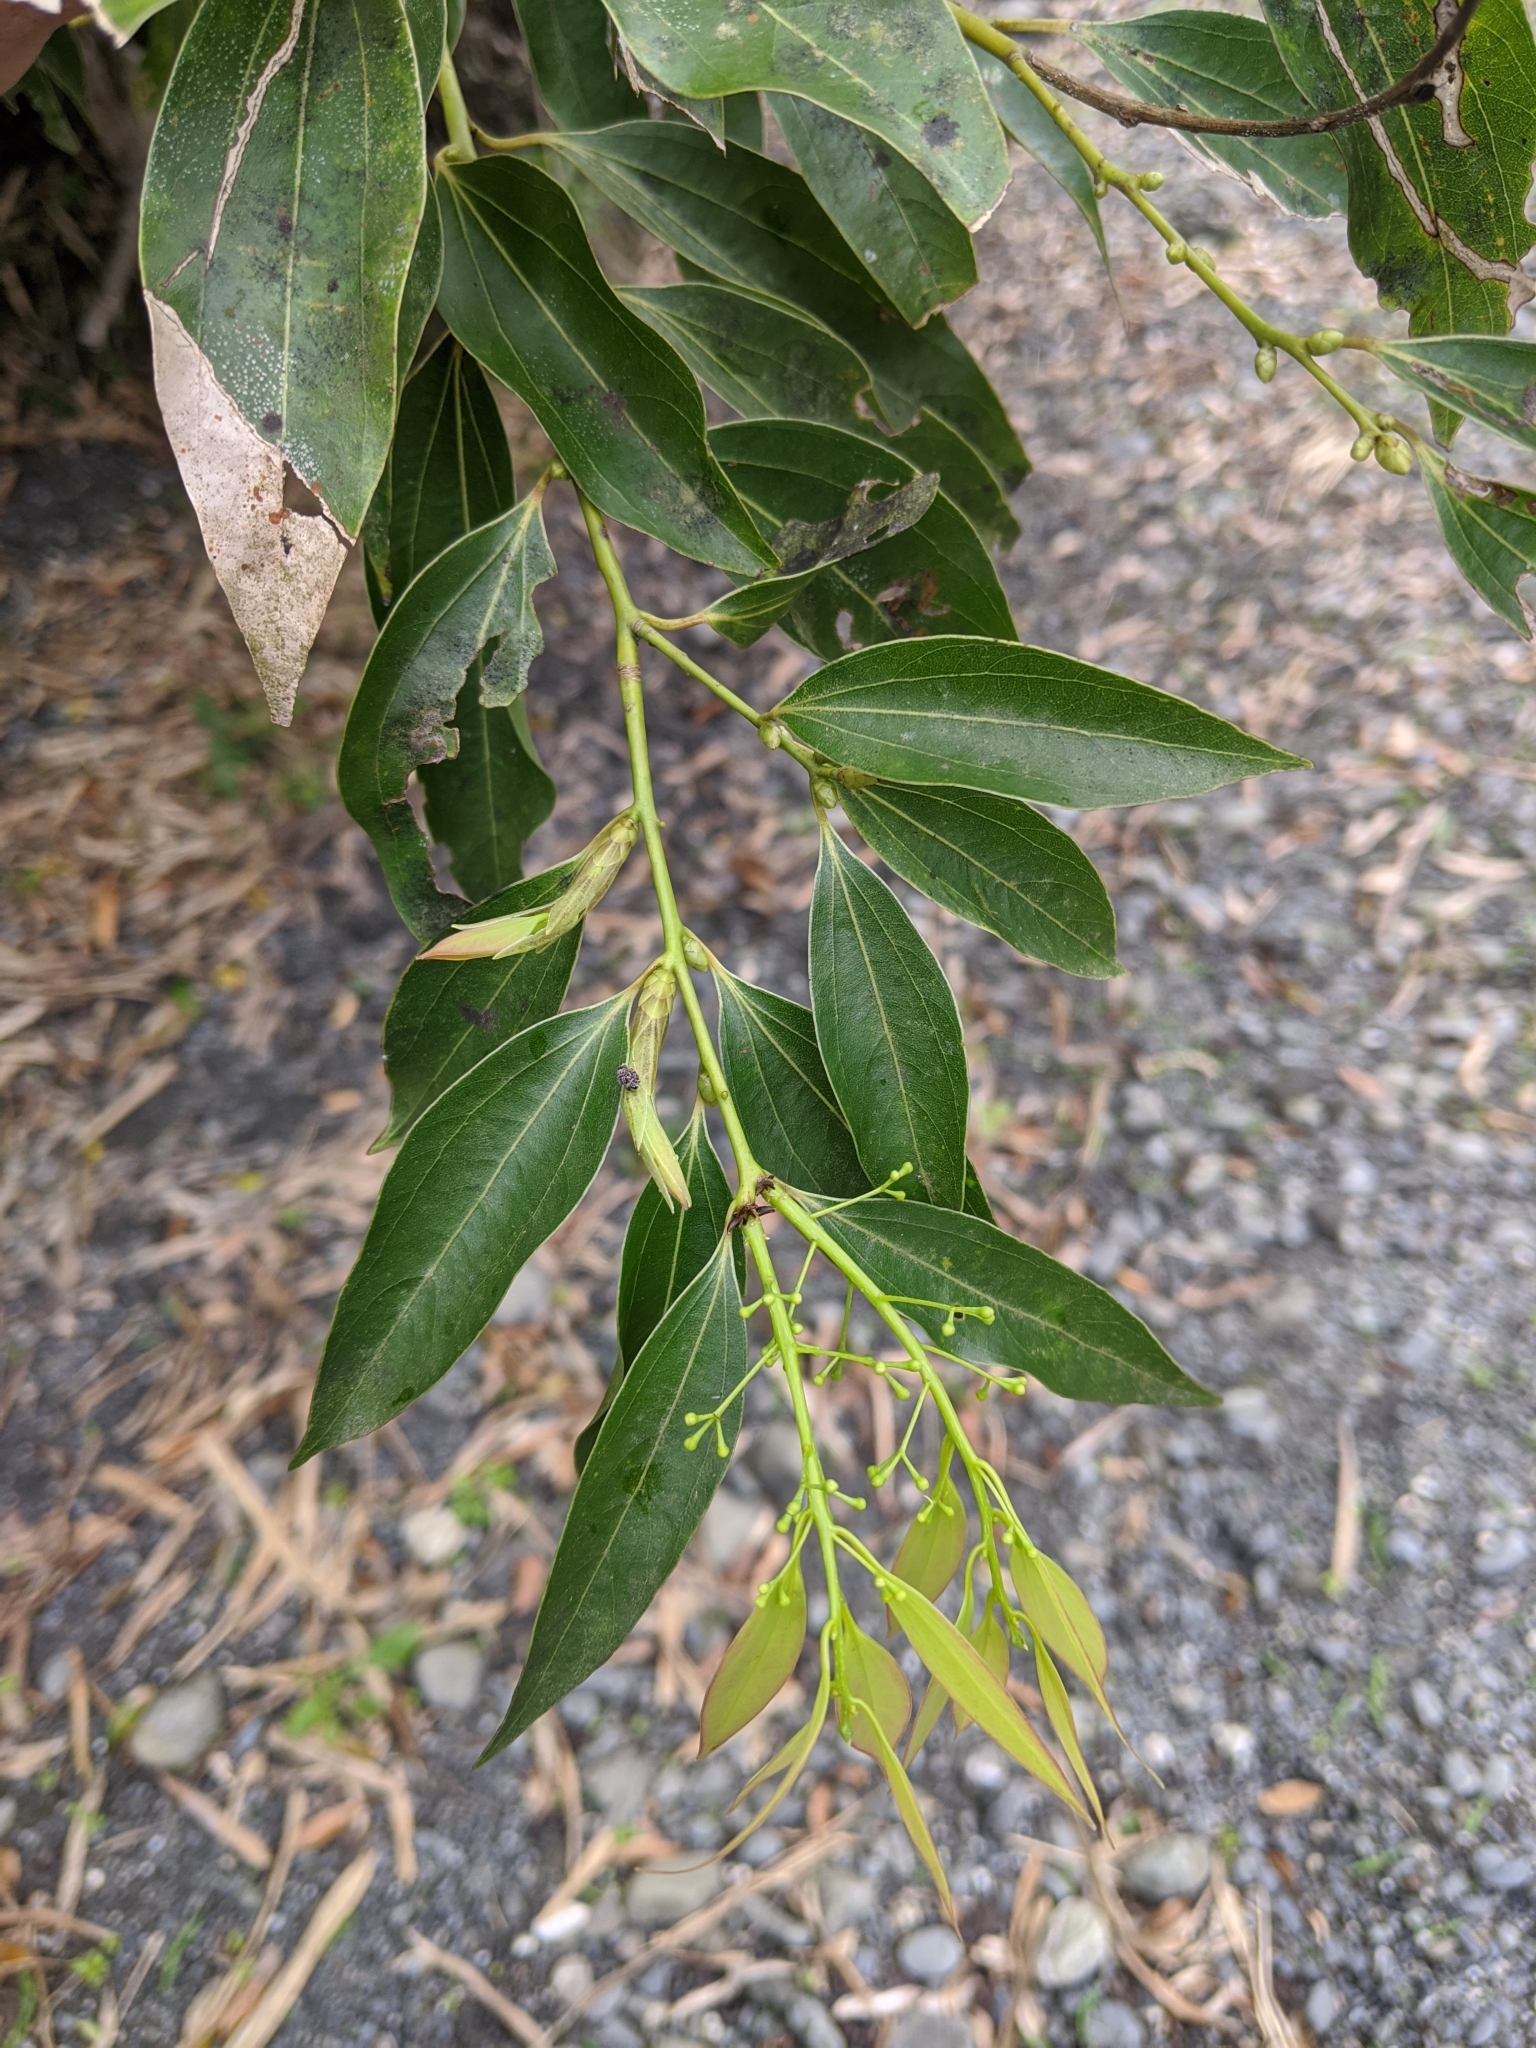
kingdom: Plantae
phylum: Tracheophyta
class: Magnoliopsida
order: Laurales
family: Lauraceae
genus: Cinnamomum
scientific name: Cinnamomum chekiangense
